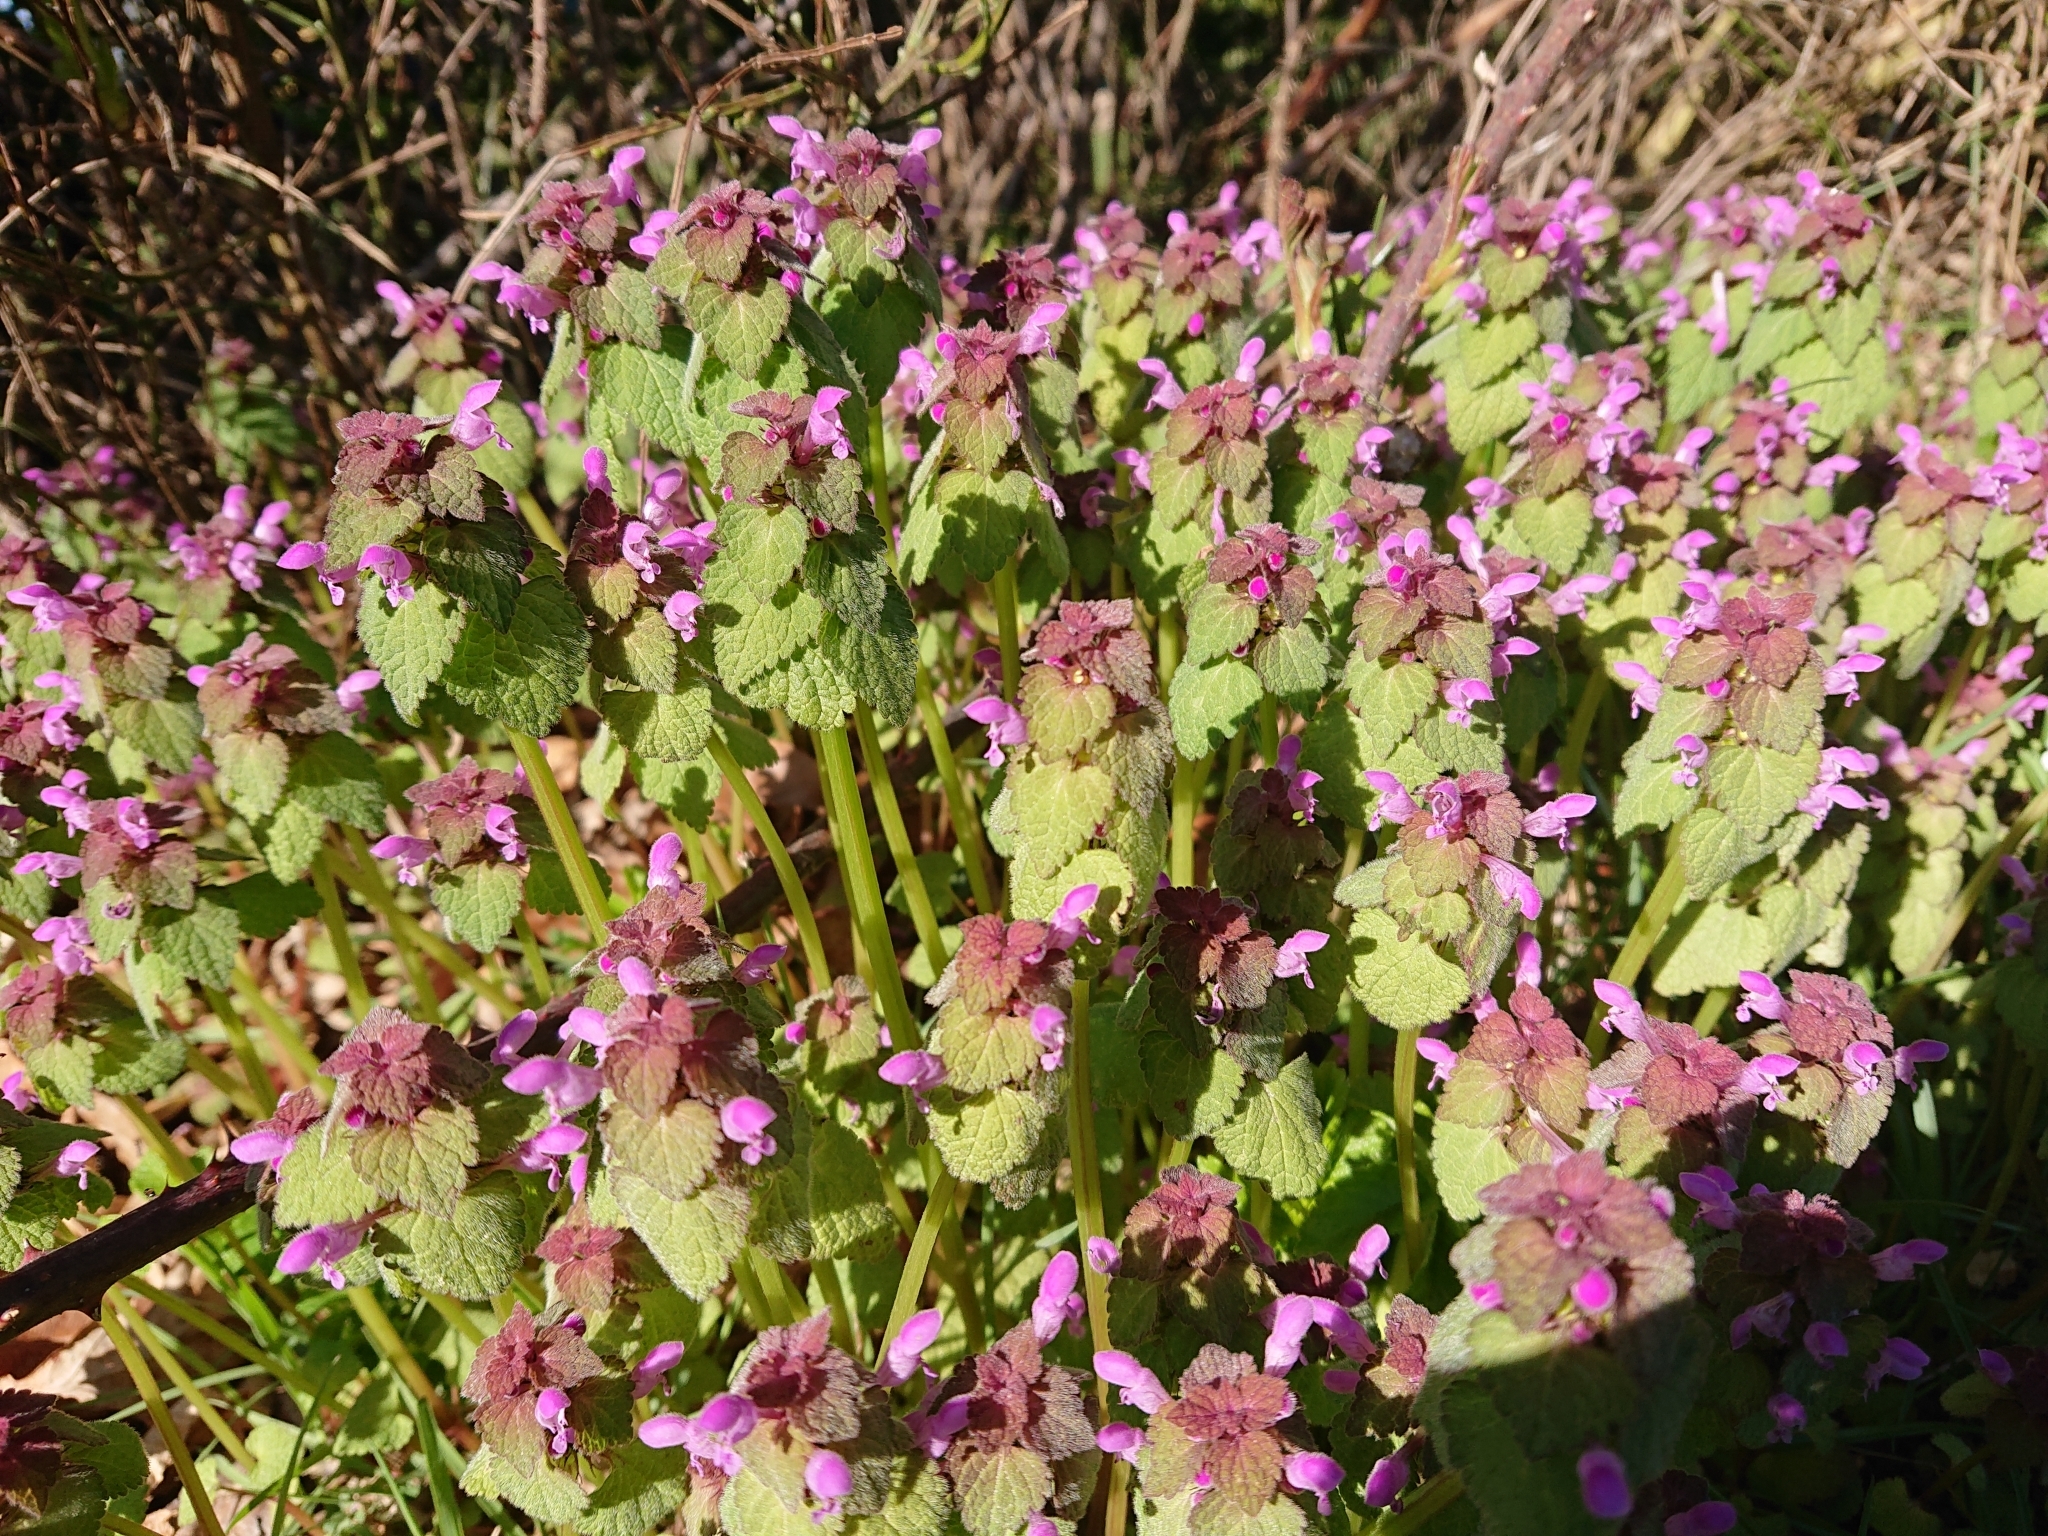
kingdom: Plantae
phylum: Tracheophyta
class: Magnoliopsida
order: Lamiales
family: Lamiaceae
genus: Lamium
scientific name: Lamium purpureum
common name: Red dead-nettle
